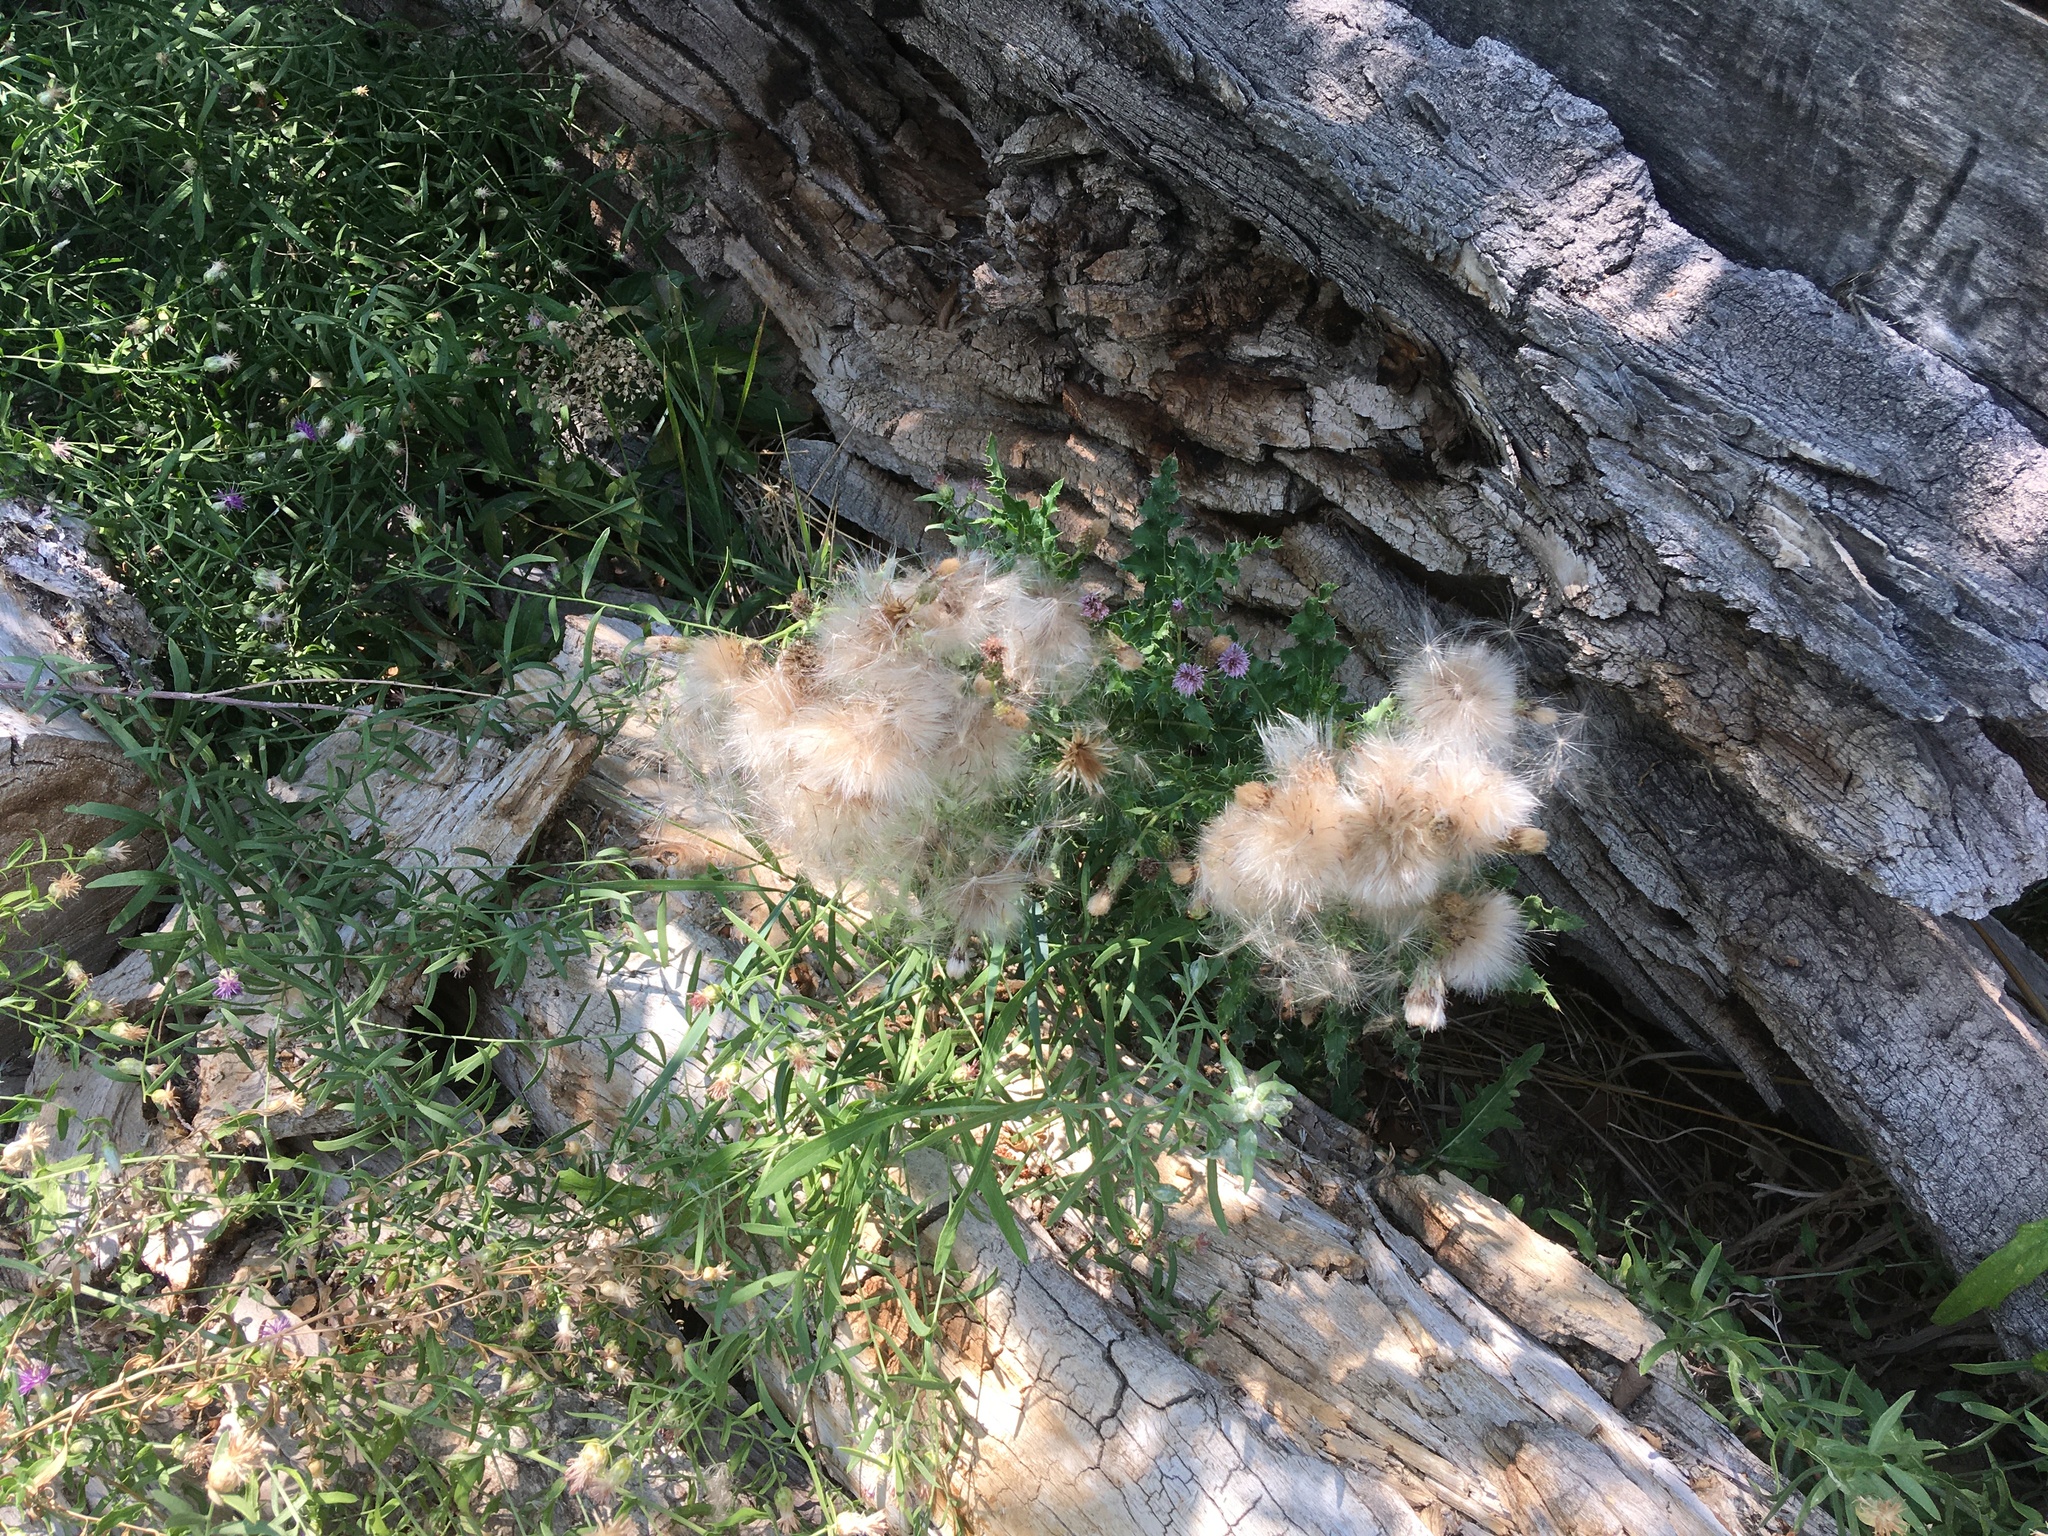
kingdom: Plantae
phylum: Tracheophyta
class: Magnoliopsida
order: Asterales
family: Asteraceae
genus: Cirsium
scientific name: Cirsium arvense
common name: Creeping thistle
